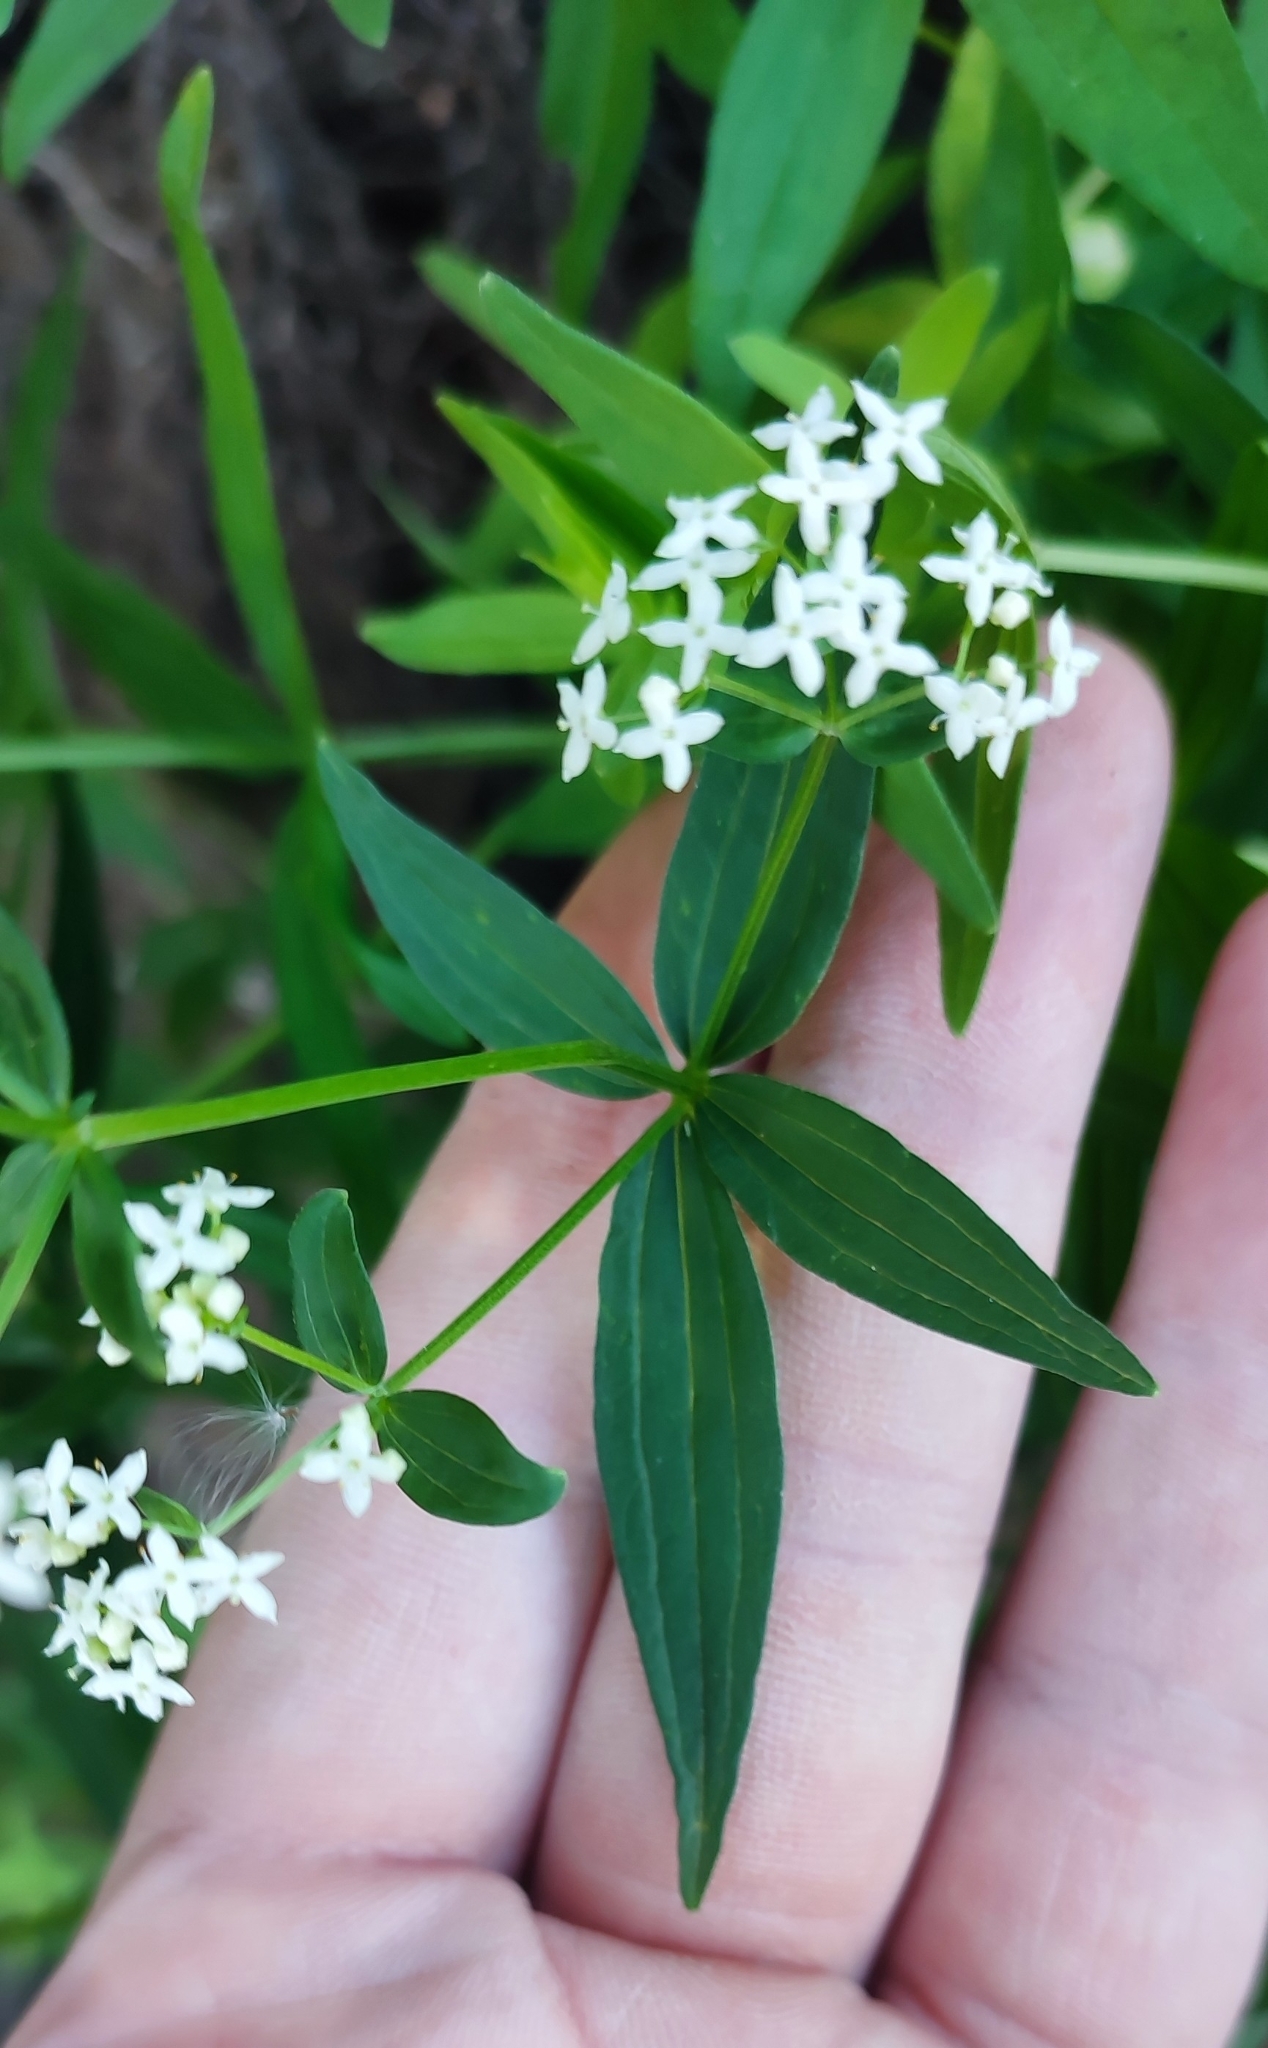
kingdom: Plantae
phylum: Tracheophyta
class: Magnoliopsida
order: Gentianales
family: Rubiaceae
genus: Galium
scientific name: Galium rubioides
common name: European bedstraw
